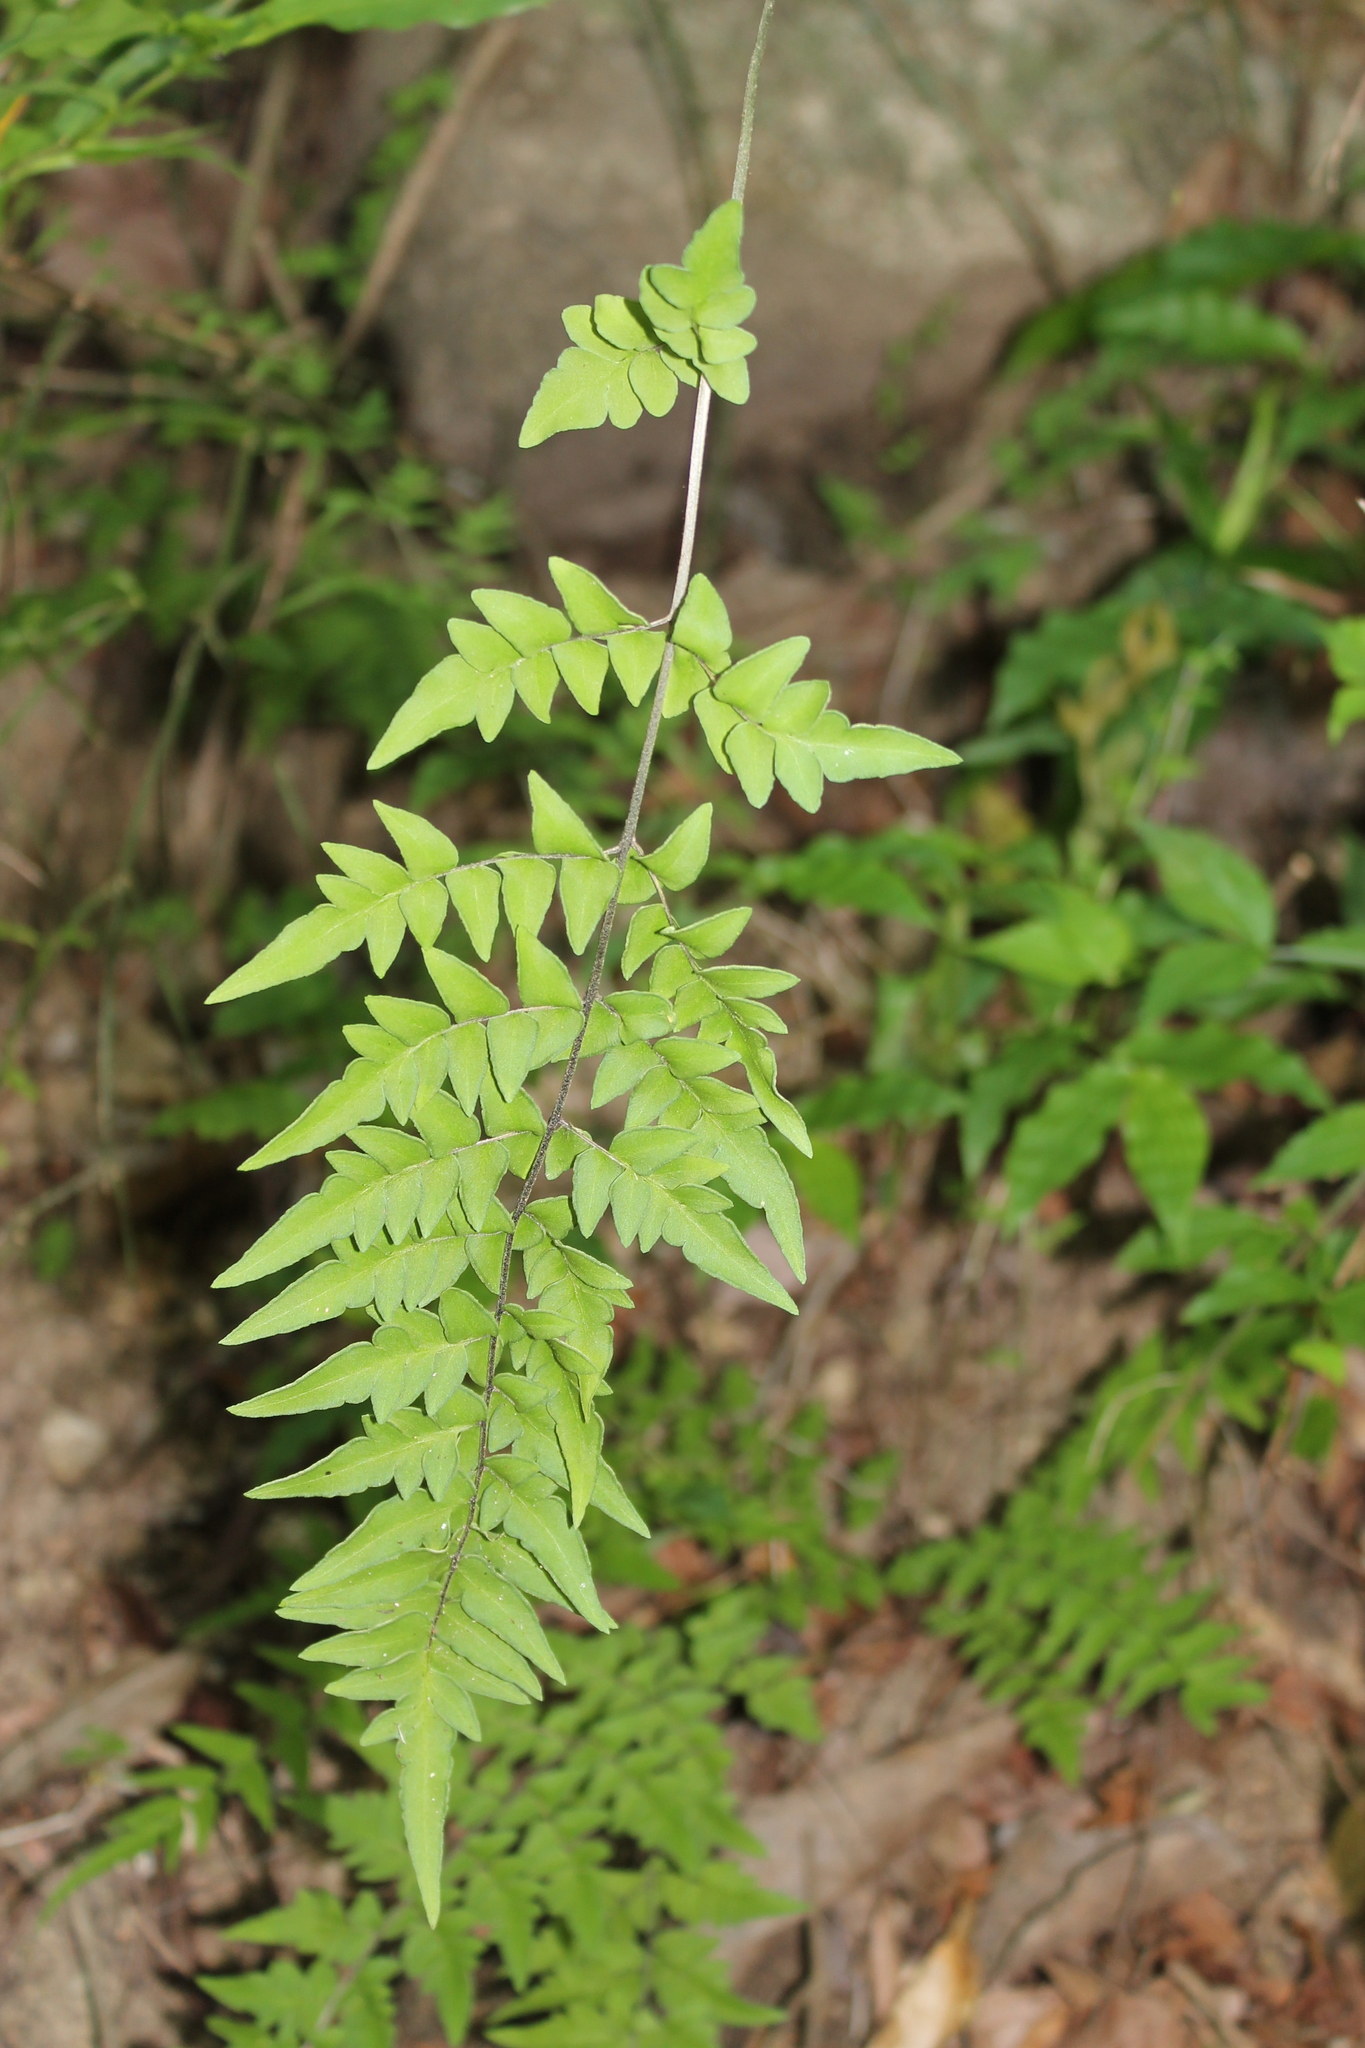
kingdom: Plantae
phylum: Tracheophyta
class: Polypodiopsida
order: Polypodiales
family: Pteridaceae
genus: Cheilanthes
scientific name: Cheilanthes lozanoi
